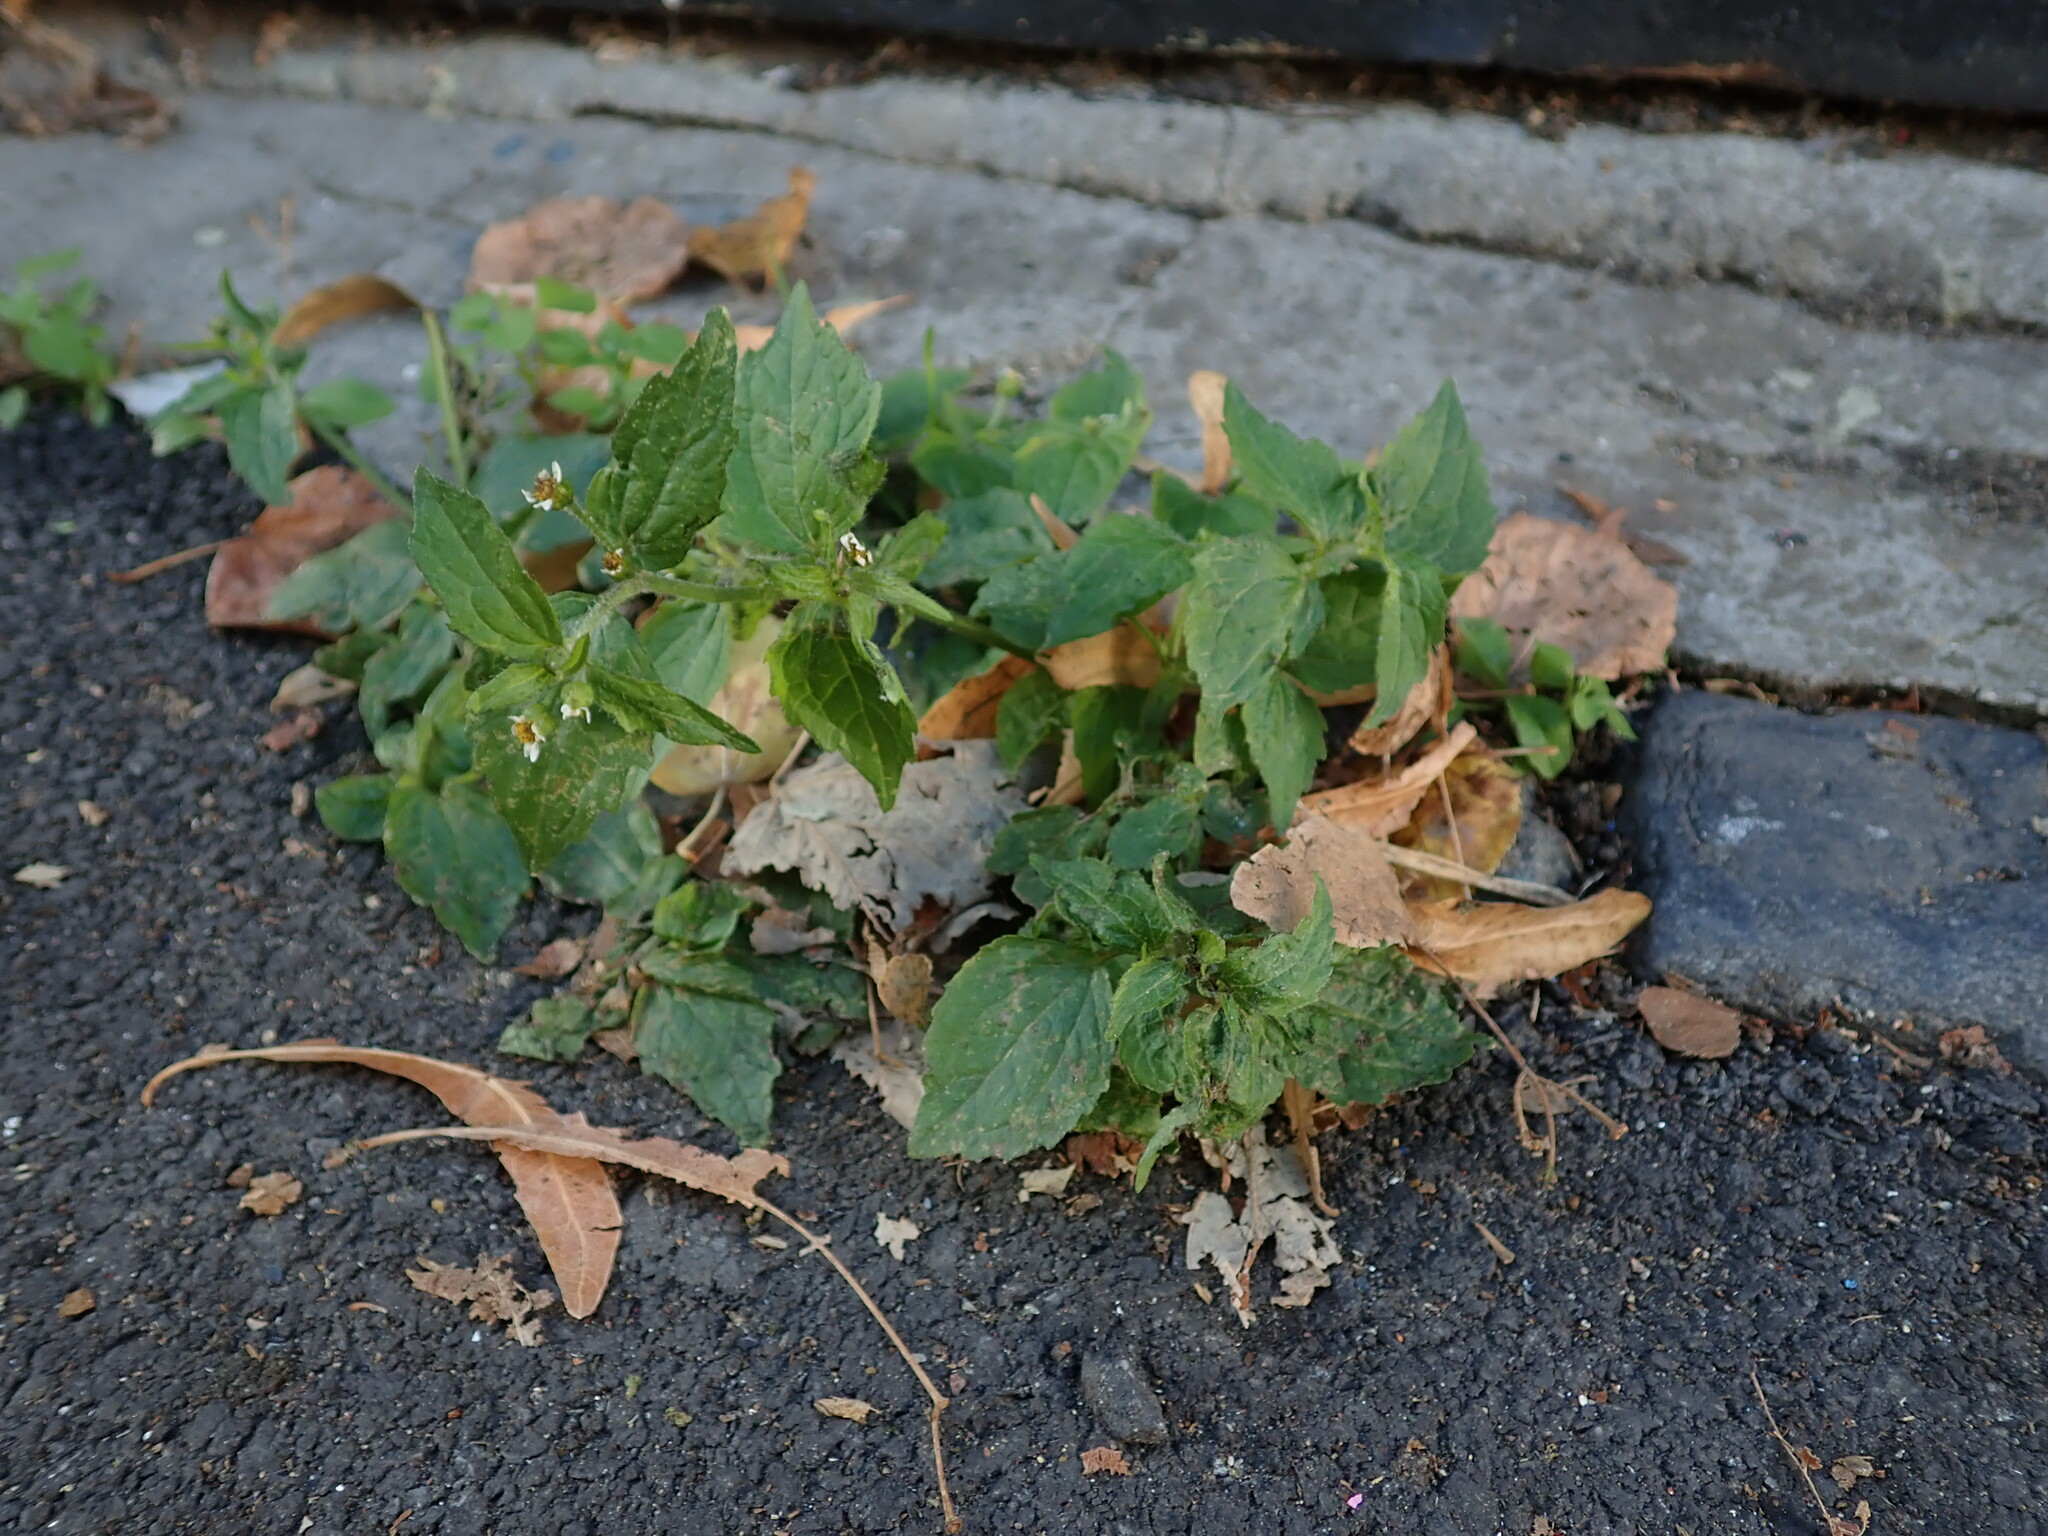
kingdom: Plantae
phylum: Tracheophyta
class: Magnoliopsida
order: Asterales
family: Asteraceae
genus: Galinsoga
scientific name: Galinsoga quadriradiata
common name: Shaggy soldier
